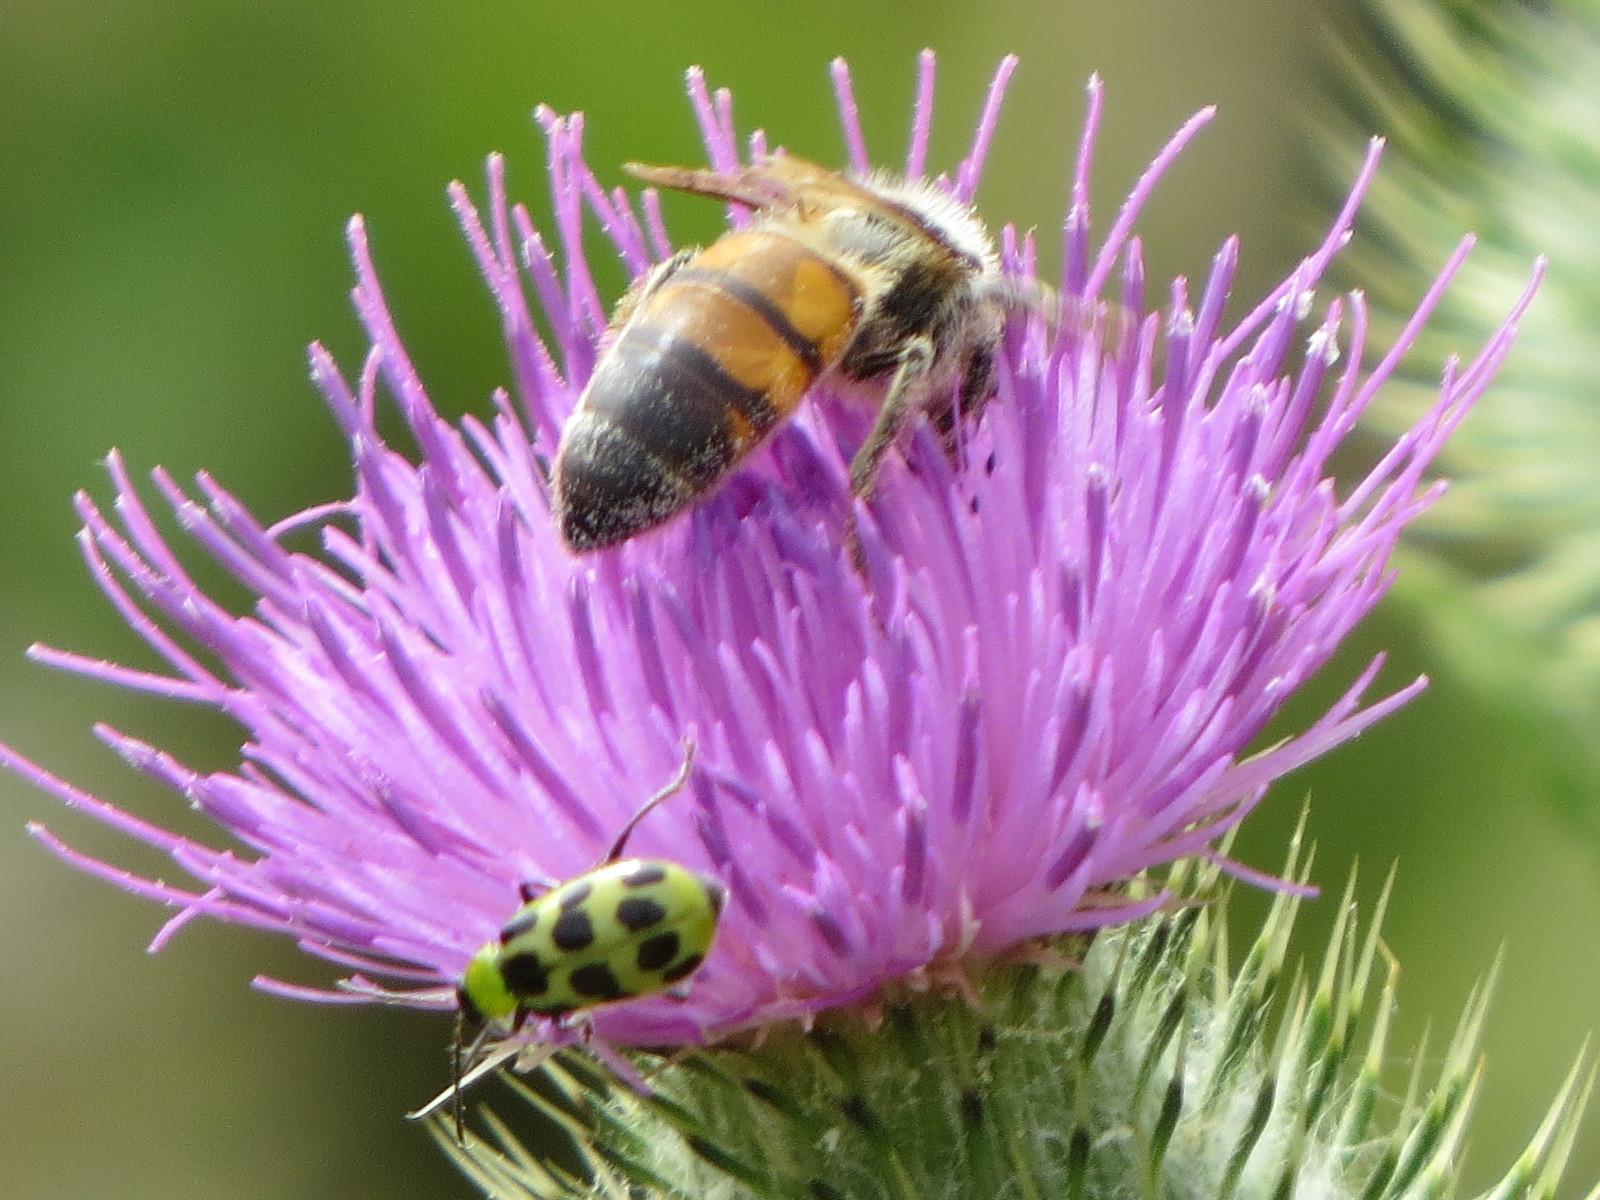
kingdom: Animalia
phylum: Arthropoda
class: Insecta
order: Hymenoptera
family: Apidae
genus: Apis
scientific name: Apis mellifera
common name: Honey bee
